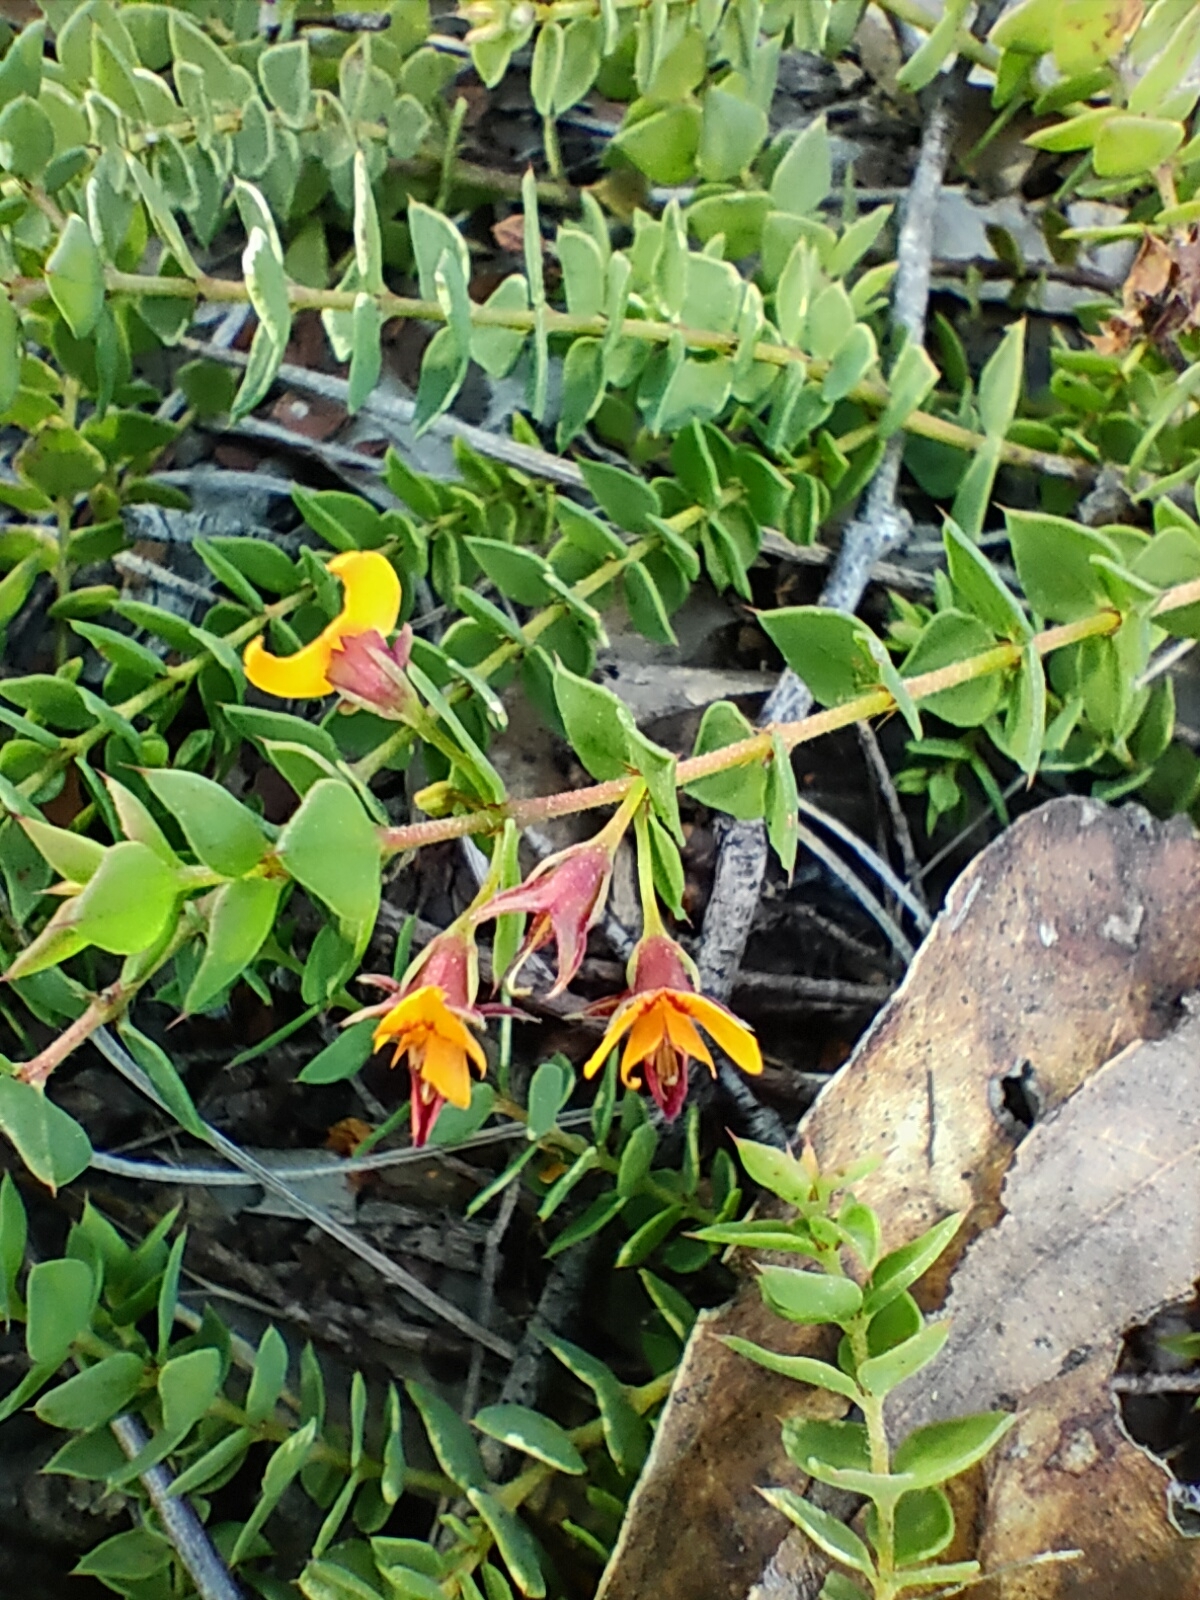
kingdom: Plantae
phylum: Tracheophyta
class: Magnoliopsida
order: Fabales
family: Fabaceae
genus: Pultenaea
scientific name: Pultenaea spinosa
